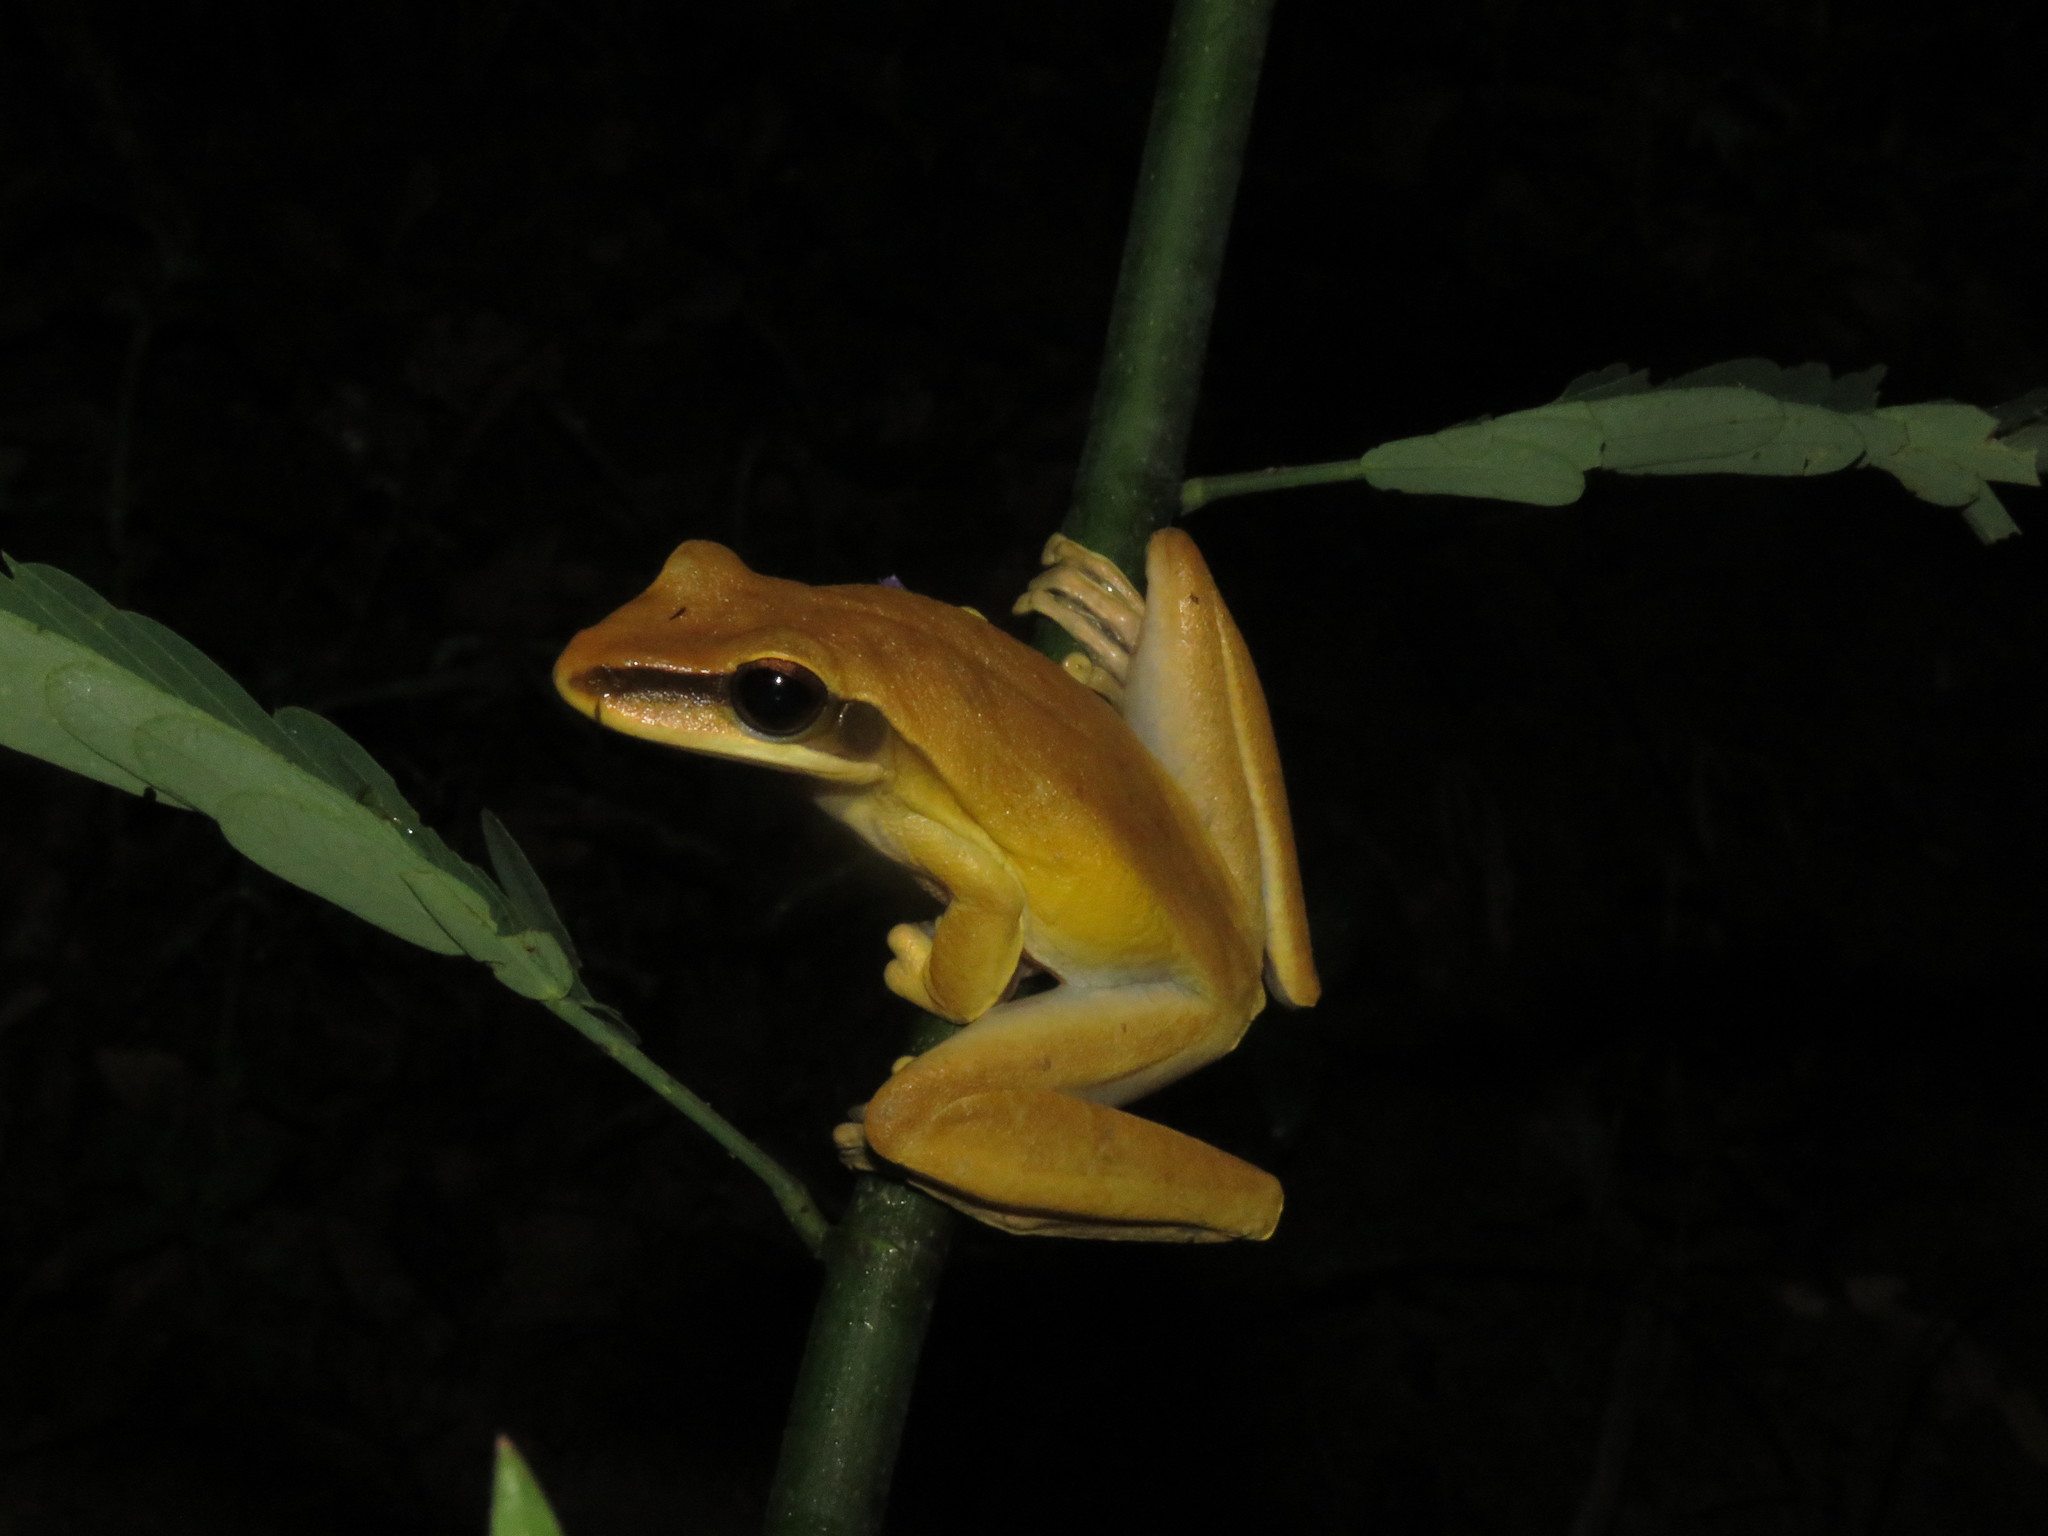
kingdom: Animalia
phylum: Chordata
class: Amphibia
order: Anura
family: Hylidae
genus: Boana
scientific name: Boana lanciformis
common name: Rana lanceolada commún
